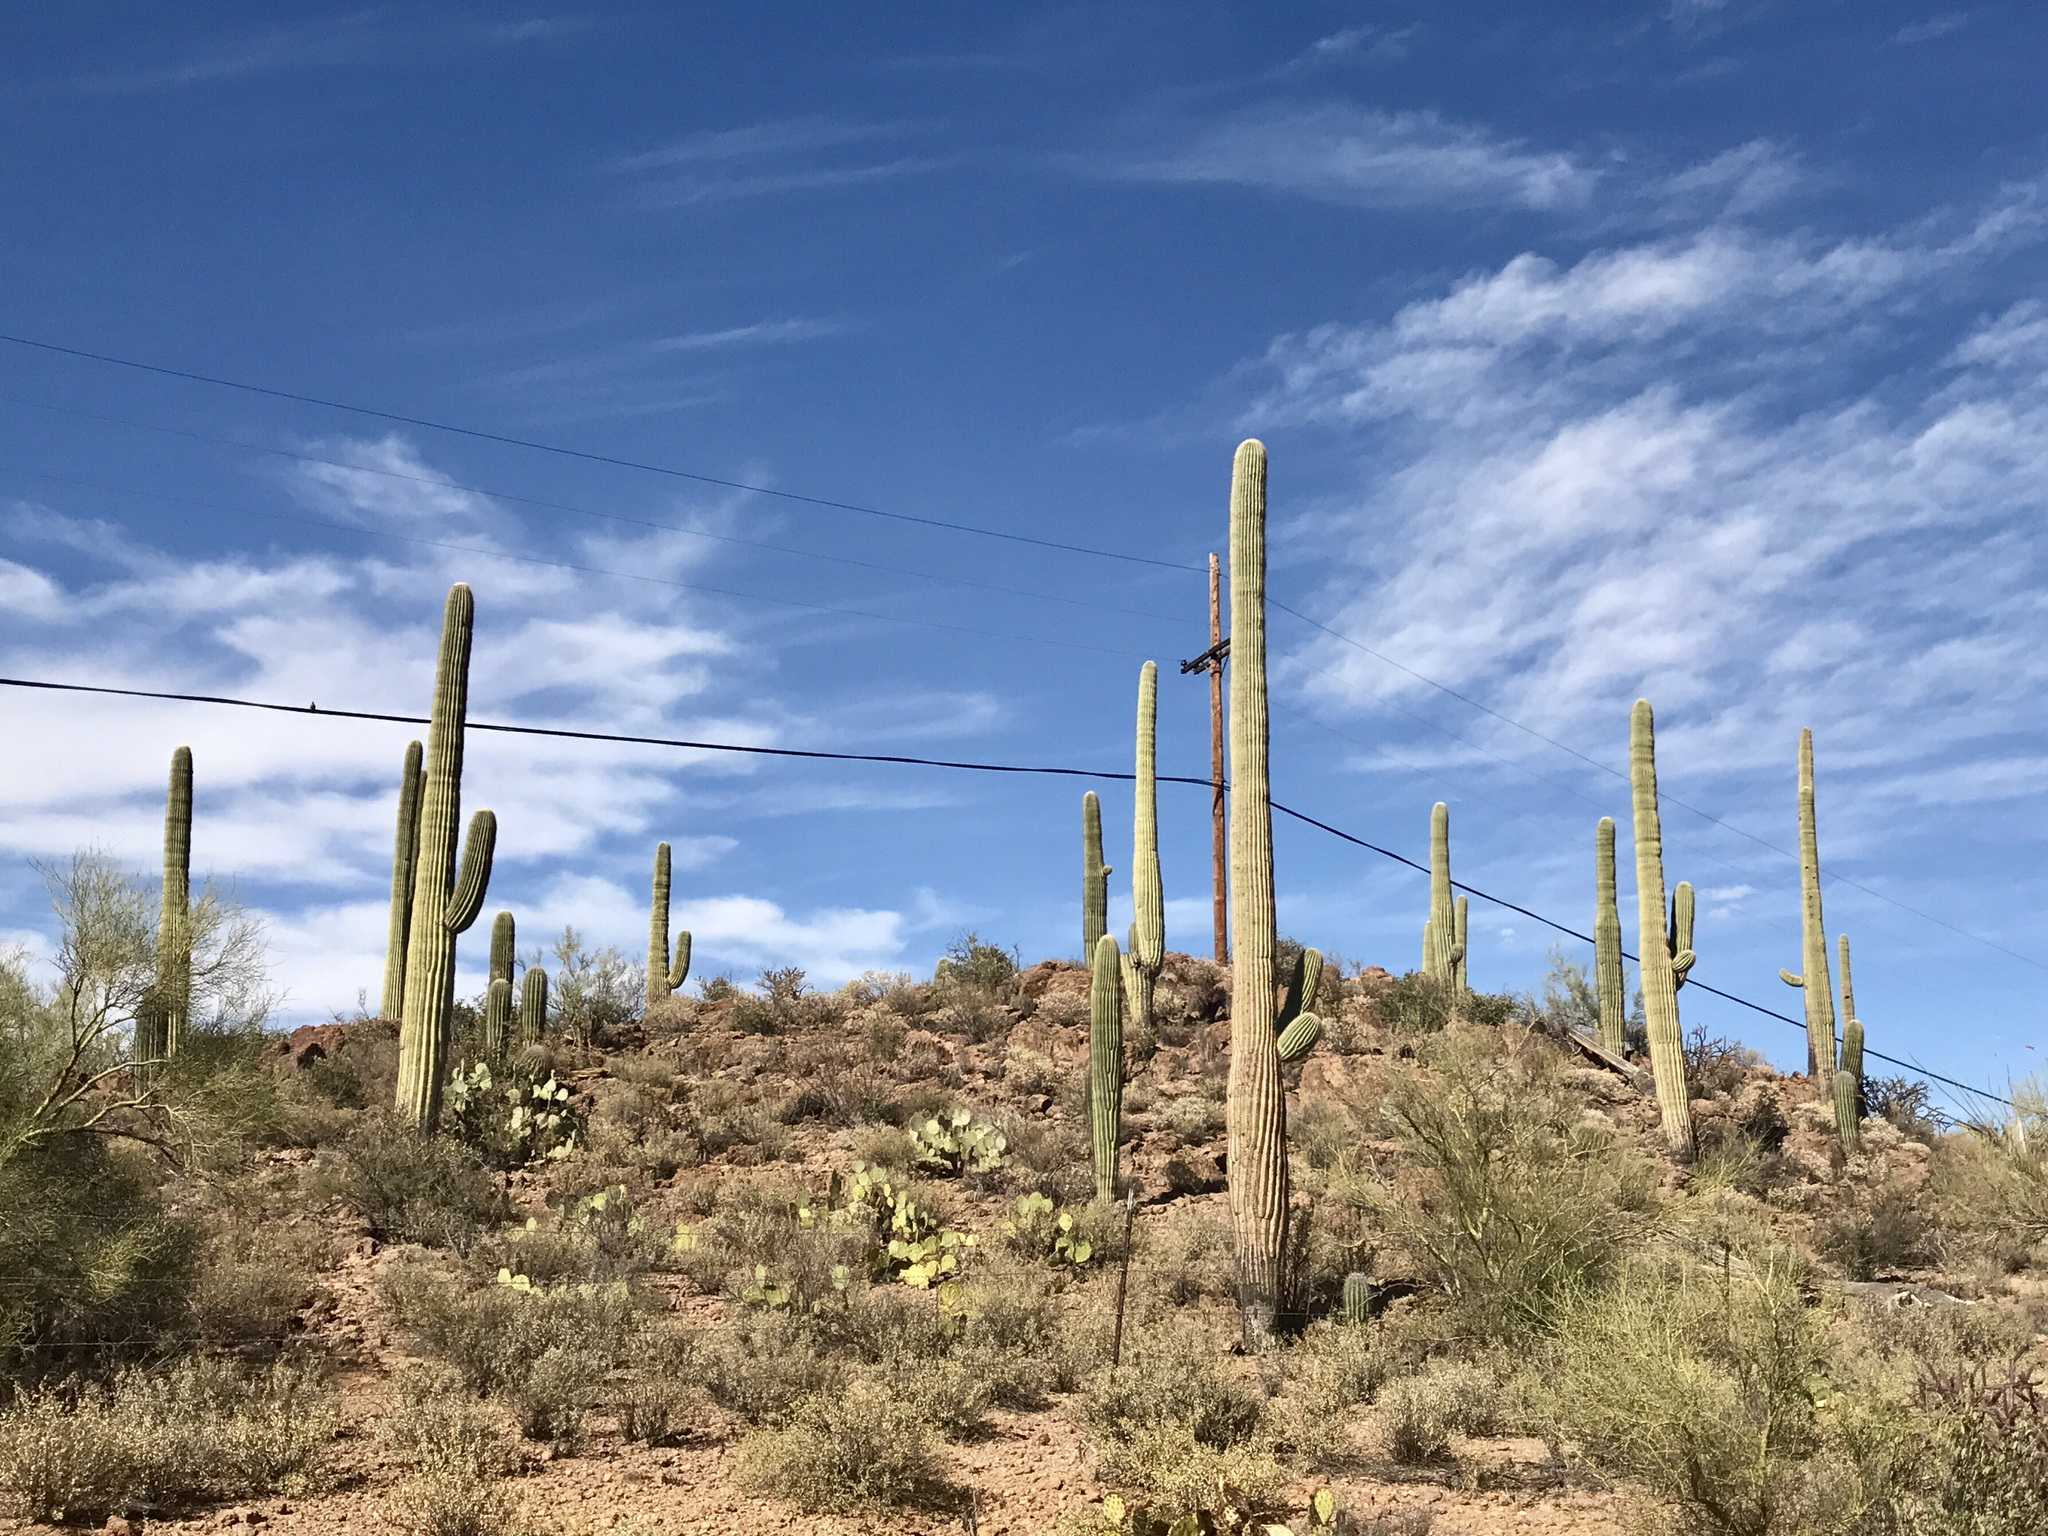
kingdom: Plantae
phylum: Tracheophyta
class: Magnoliopsida
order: Caryophyllales
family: Cactaceae
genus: Carnegiea
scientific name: Carnegiea gigantea
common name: Saguaro
